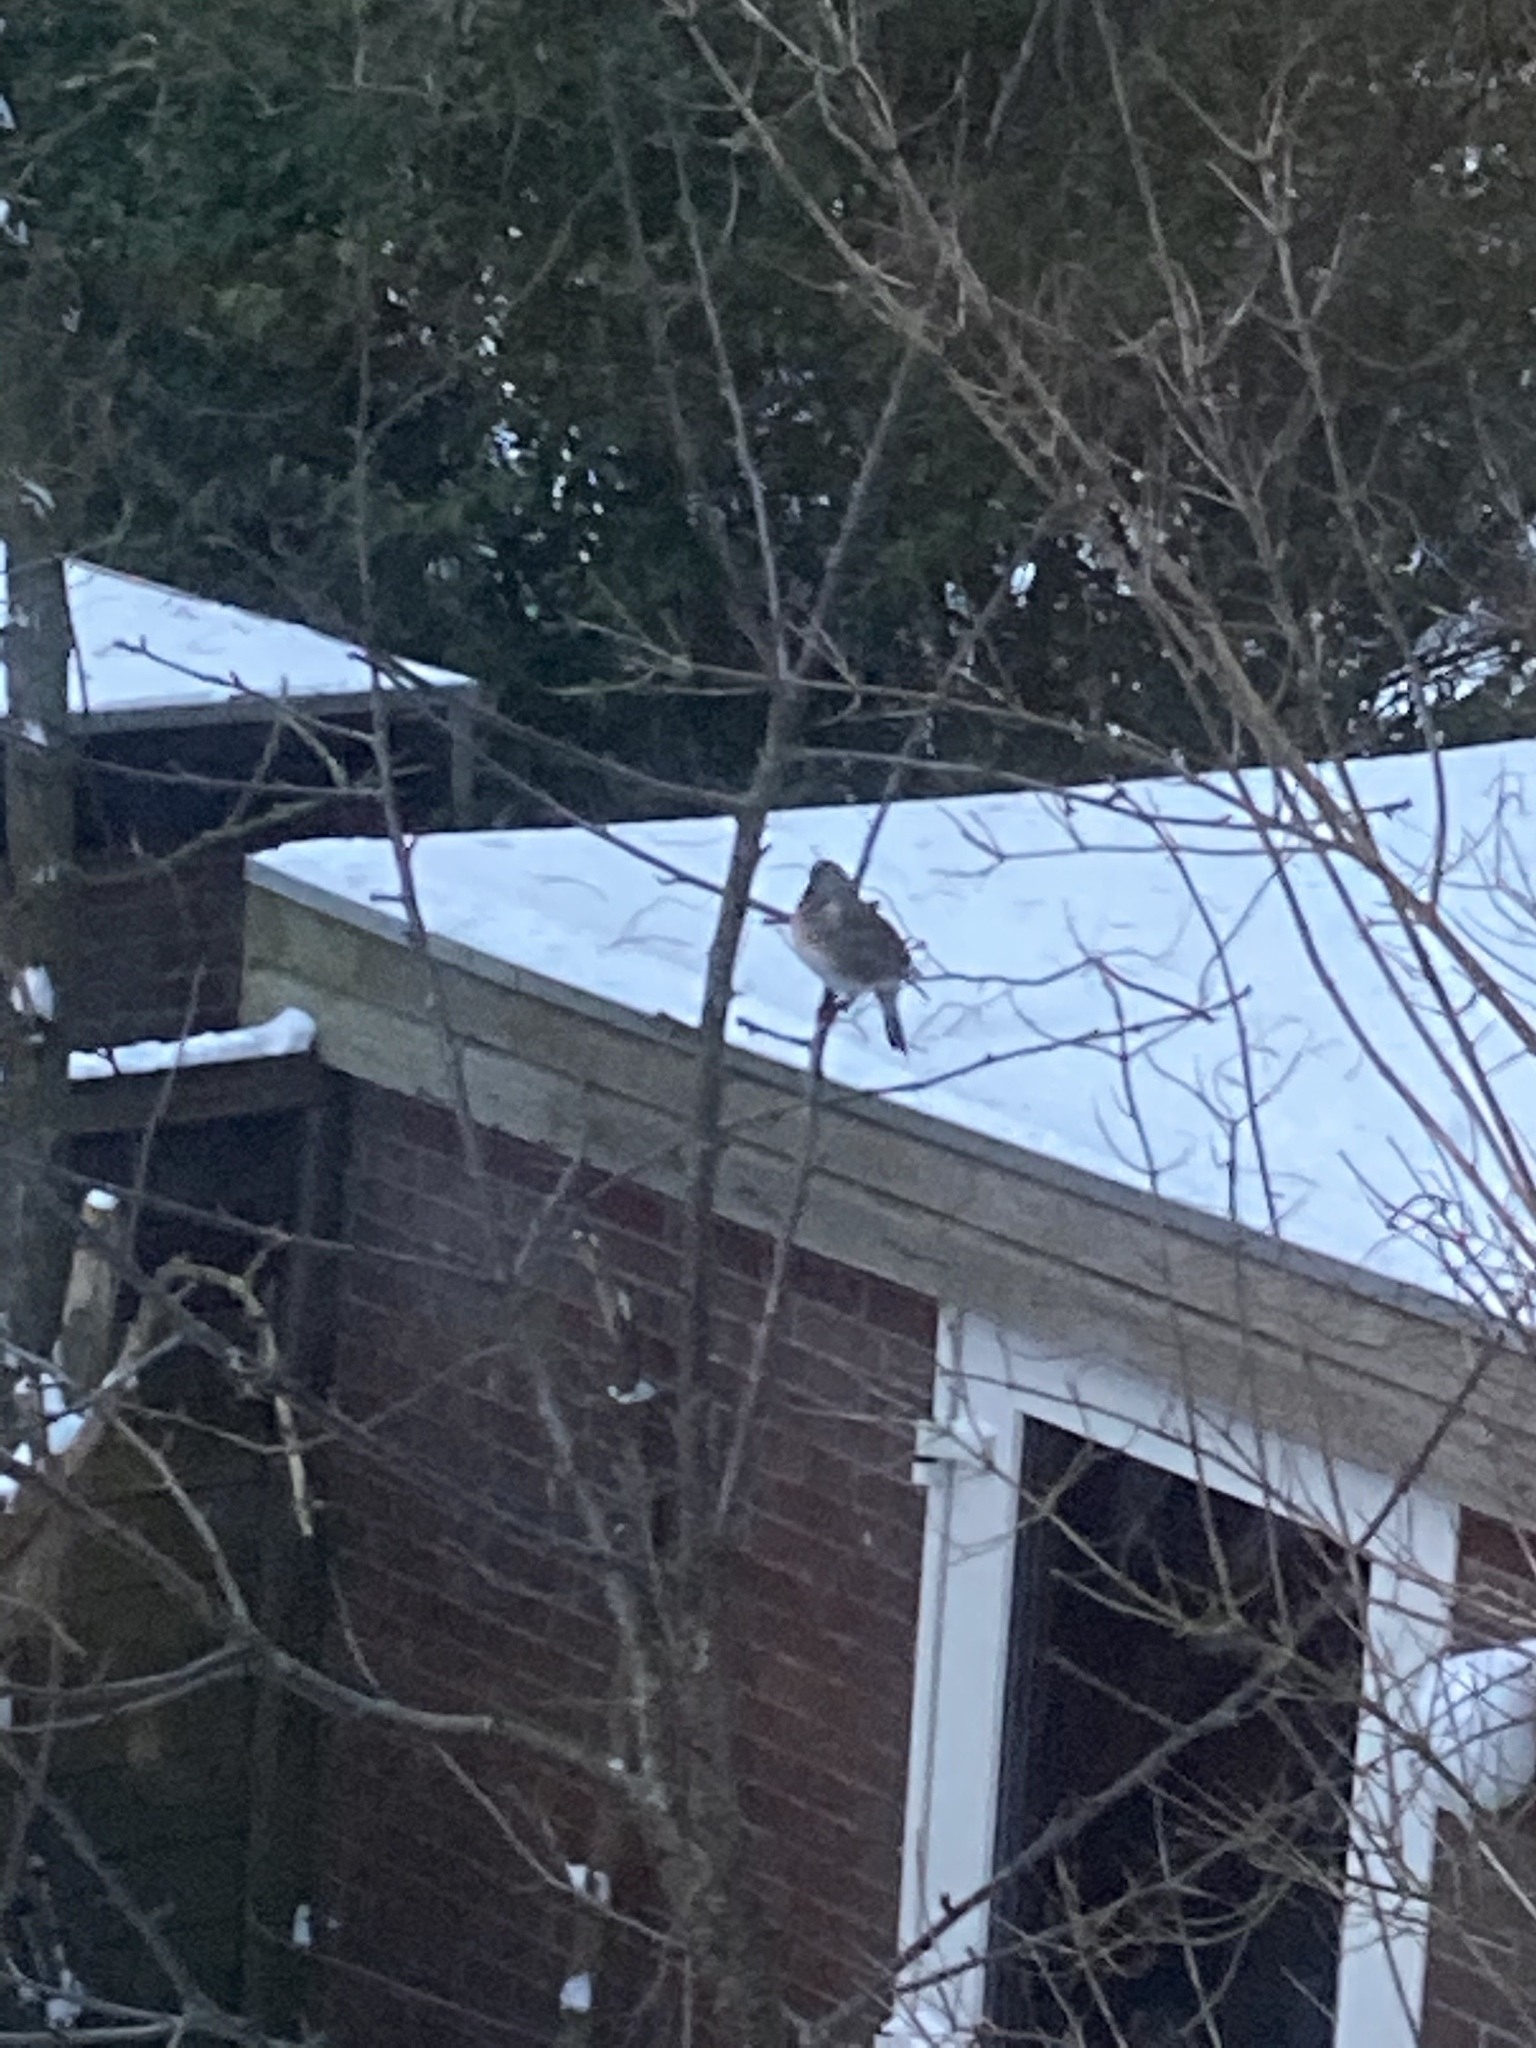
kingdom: Animalia
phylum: Chordata
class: Aves
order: Passeriformes
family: Turdidae
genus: Turdus
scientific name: Turdus pilaris
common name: Fieldfare
